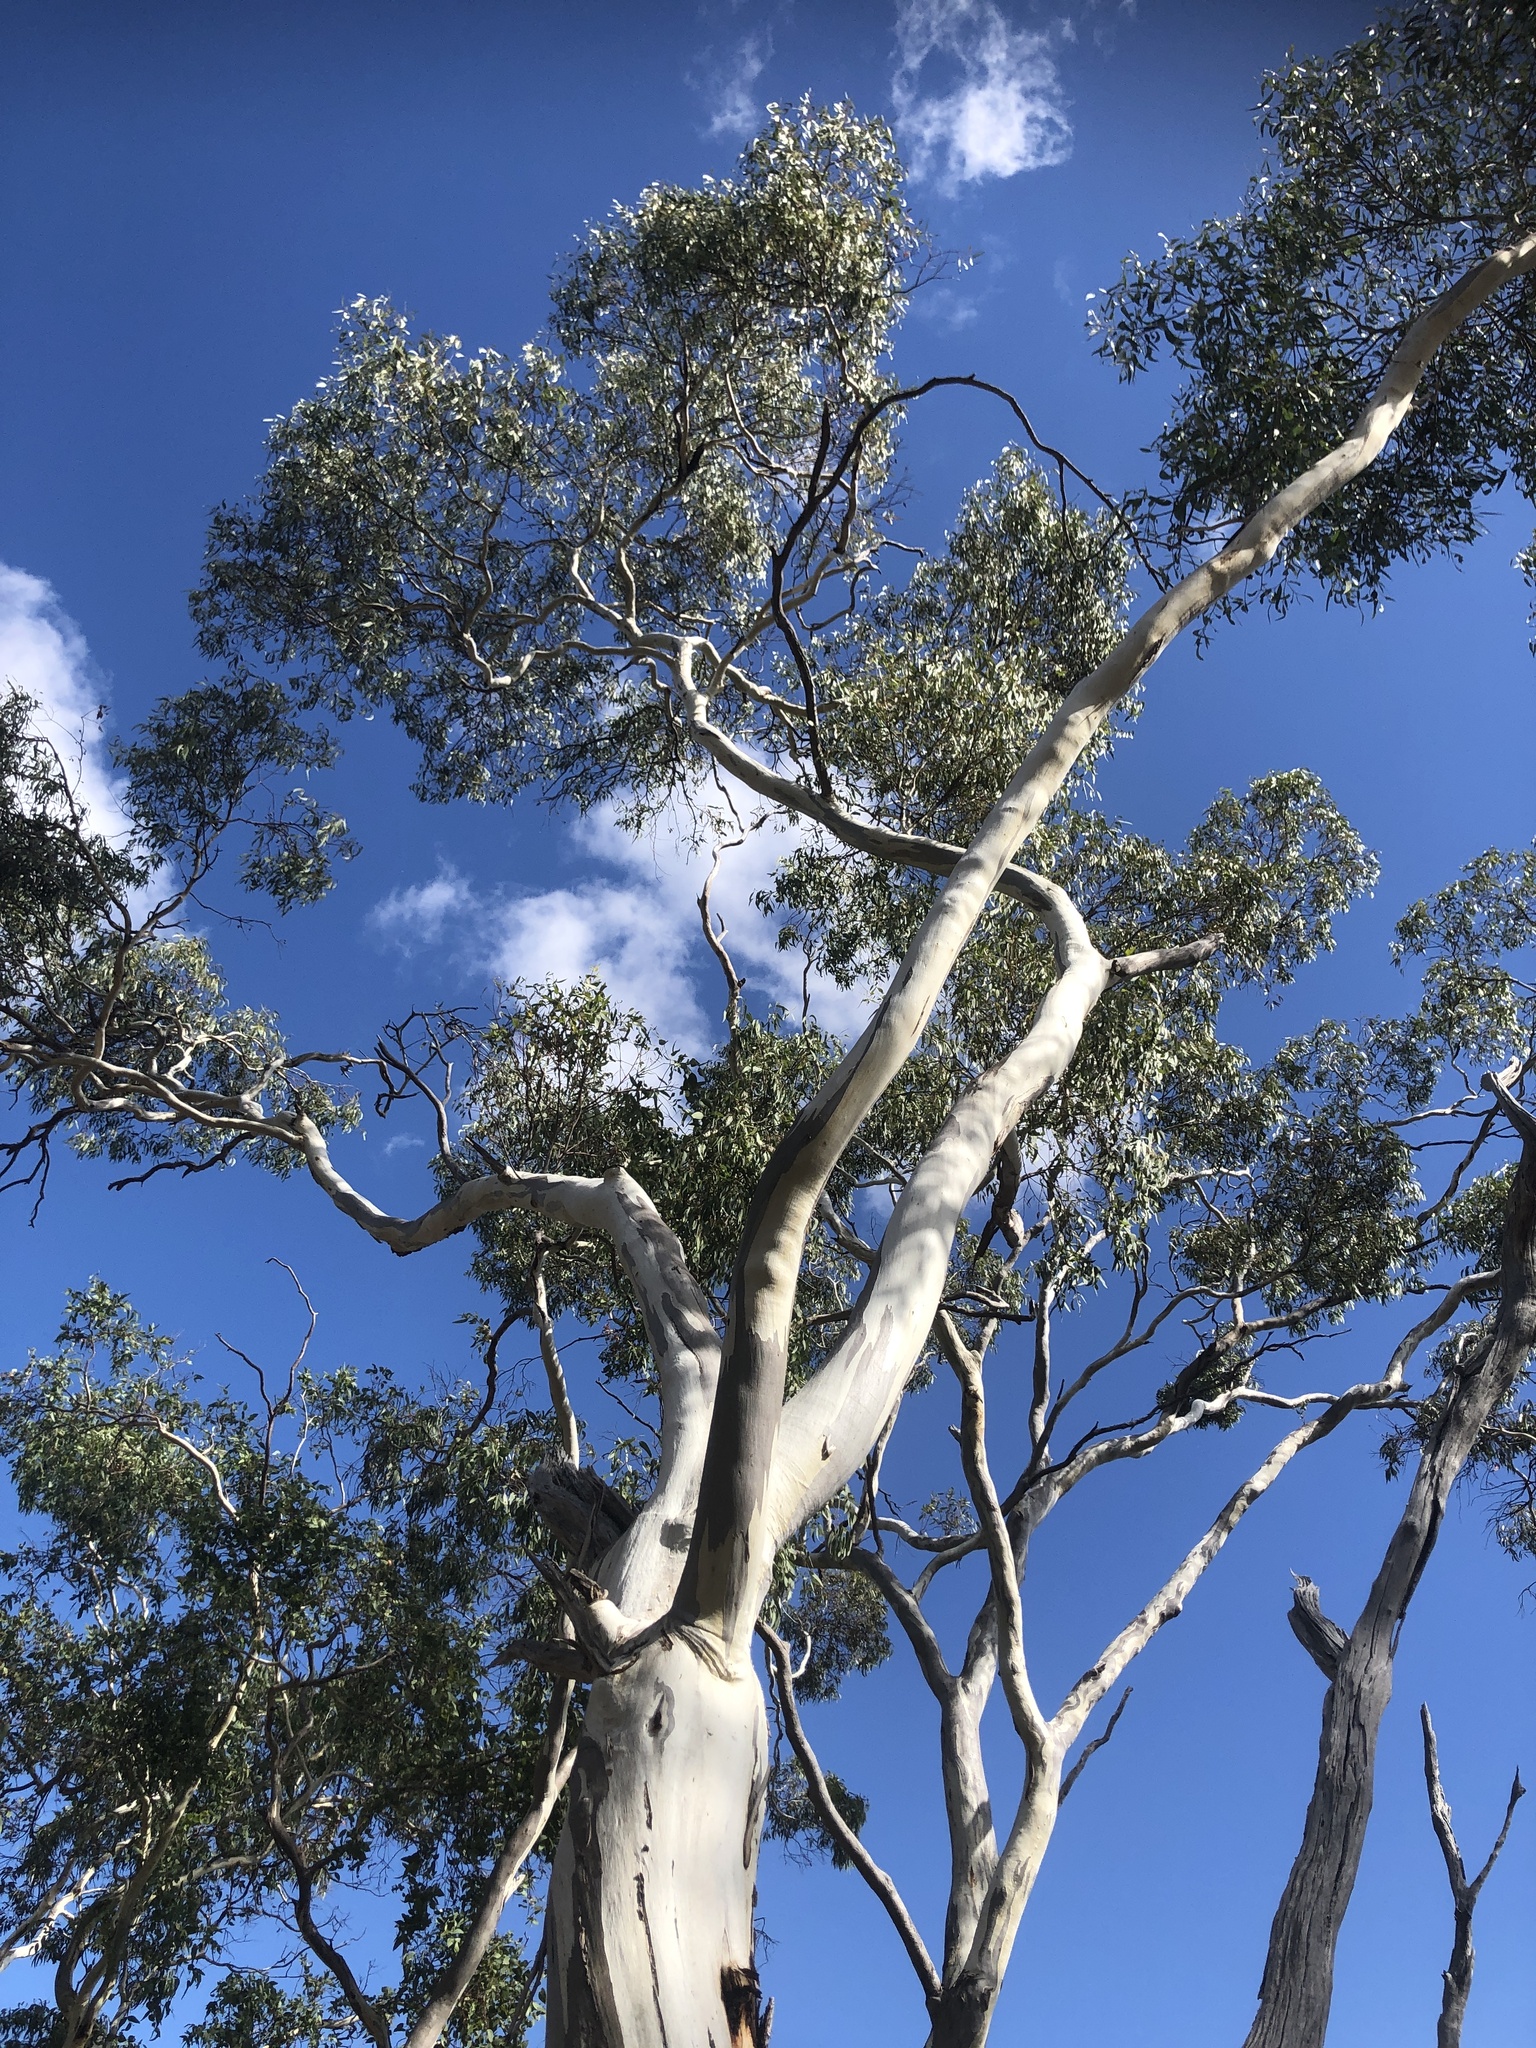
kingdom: Plantae
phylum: Tracheophyta
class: Magnoliopsida
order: Myrtales
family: Myrtaceae
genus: Eucalyptus
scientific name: Eucalyptus leucoxylon
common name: Blue gum
